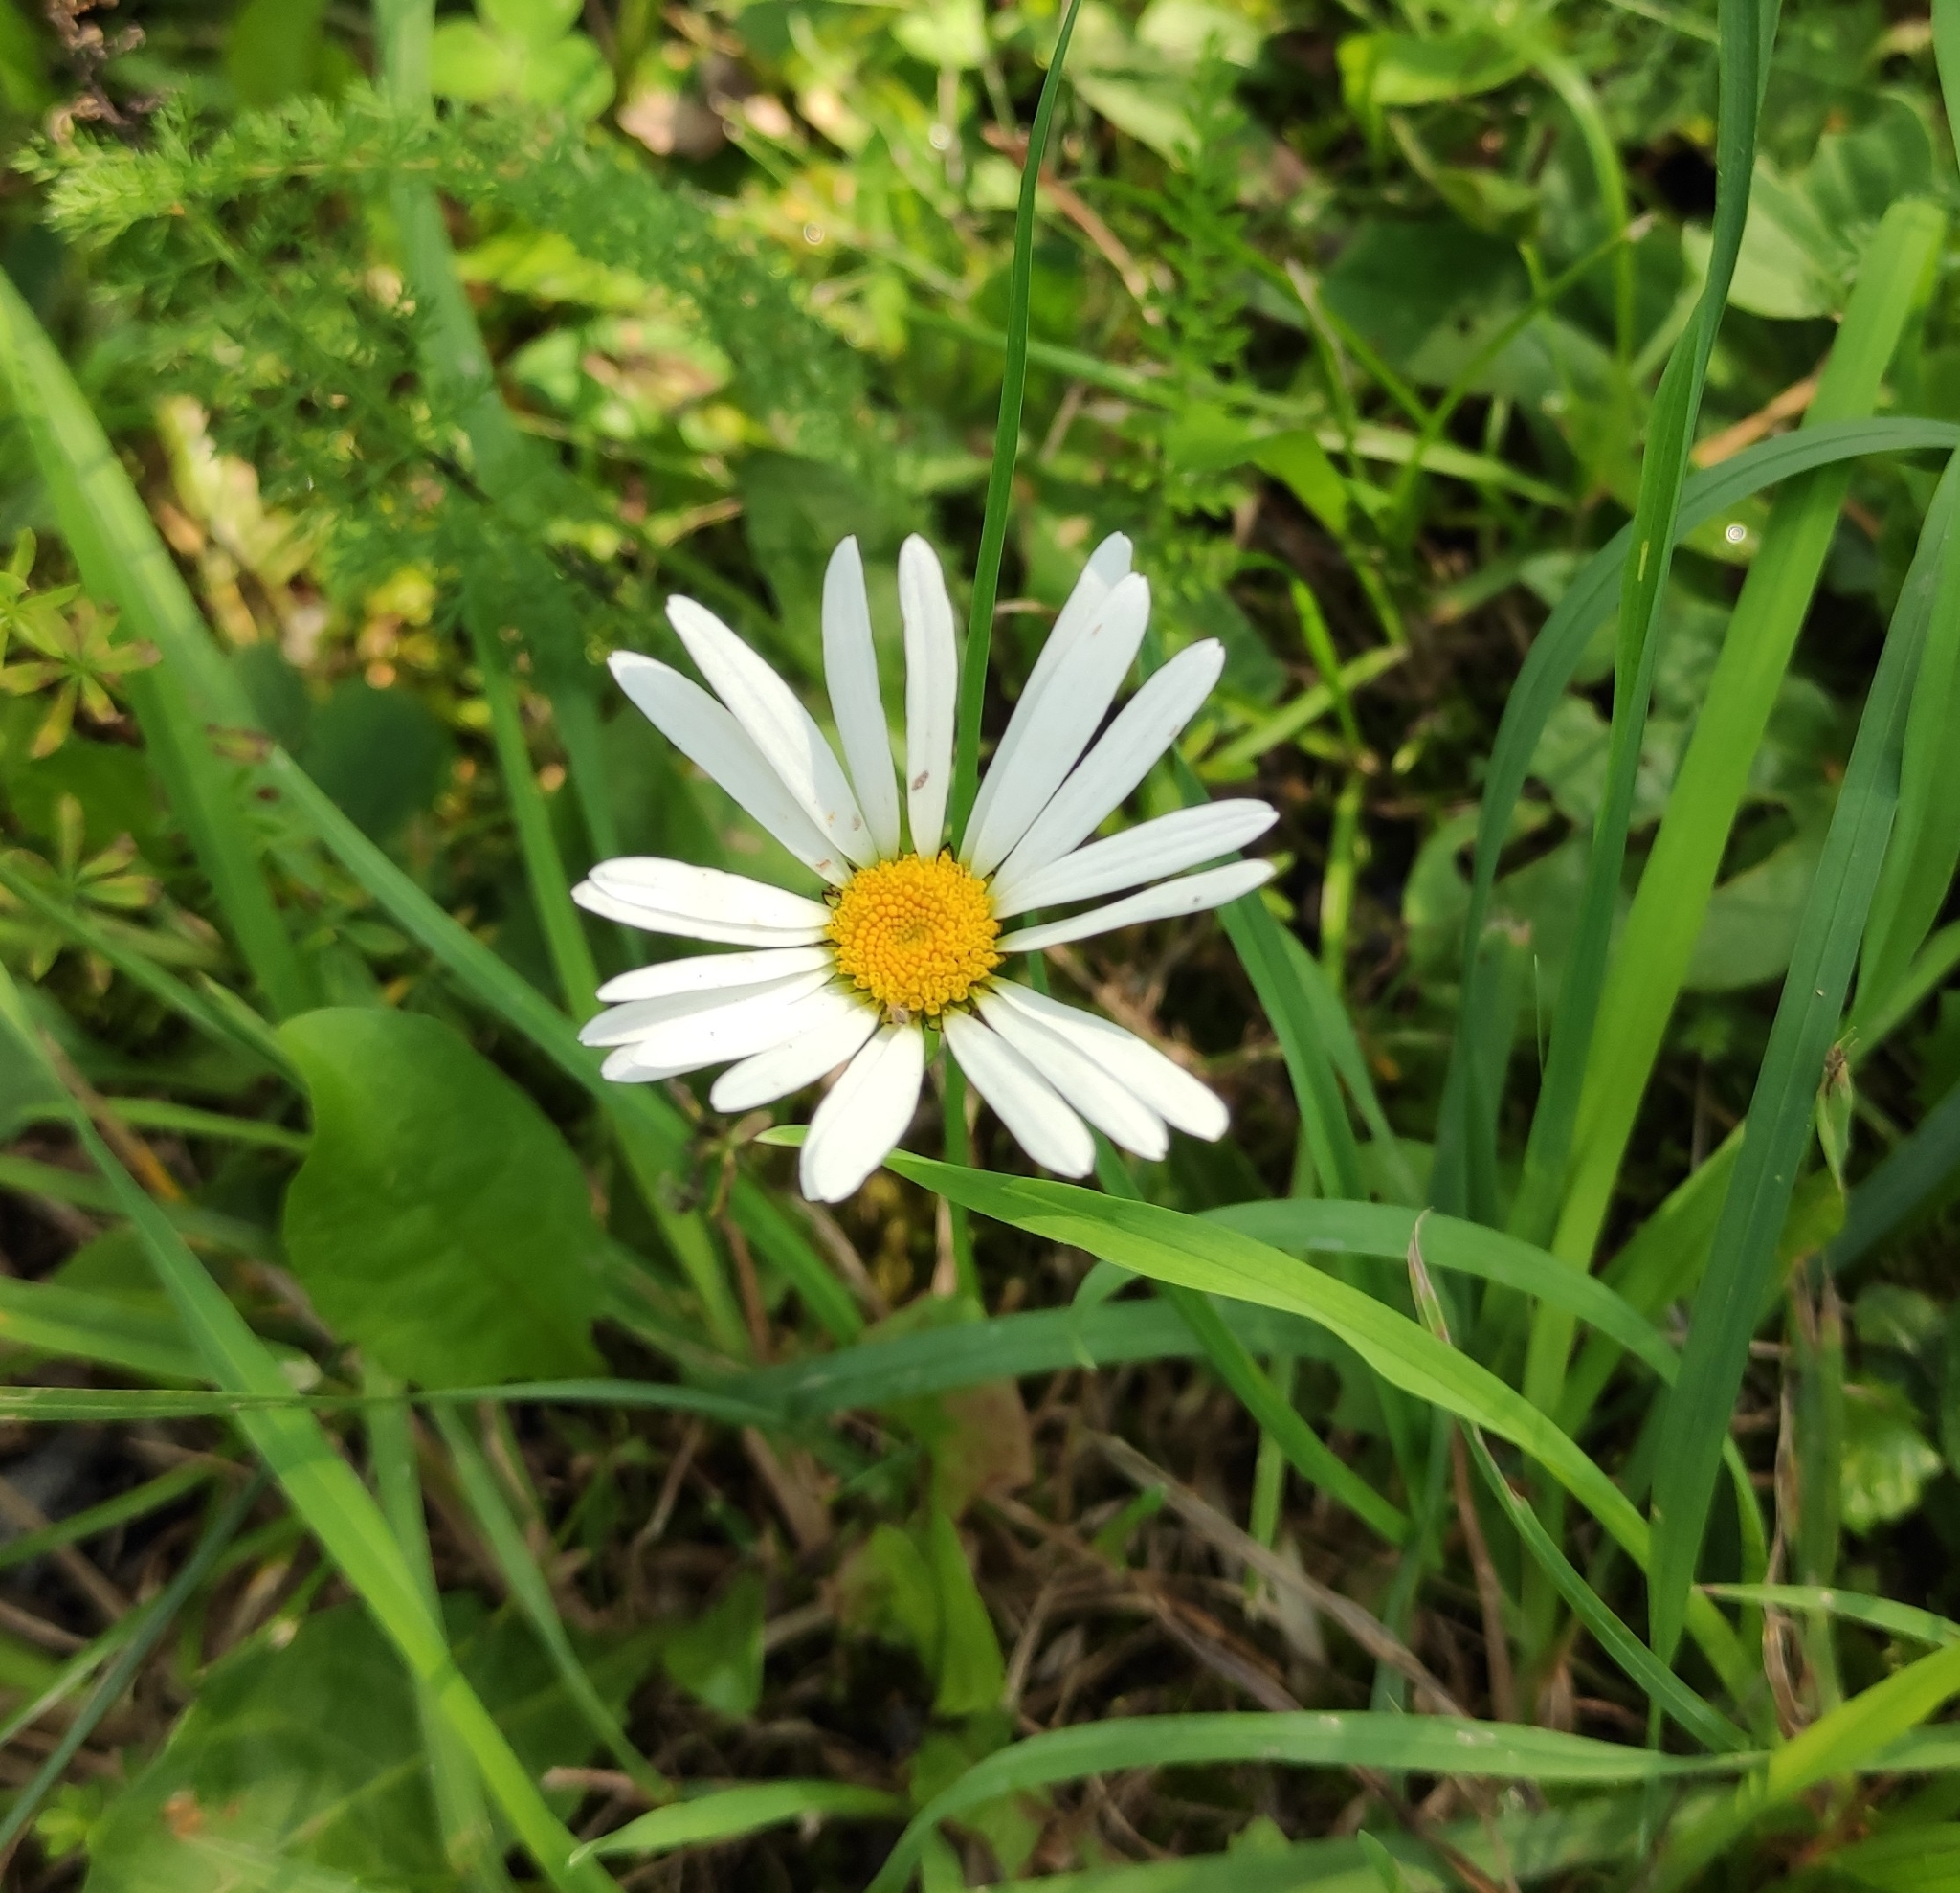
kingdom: Plantae
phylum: Tracheophyta
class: Magnoliopsida
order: Asterales
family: Asteraceae
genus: Leucanthemum
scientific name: Leucanthemum vulgare
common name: Oxeye daisy
